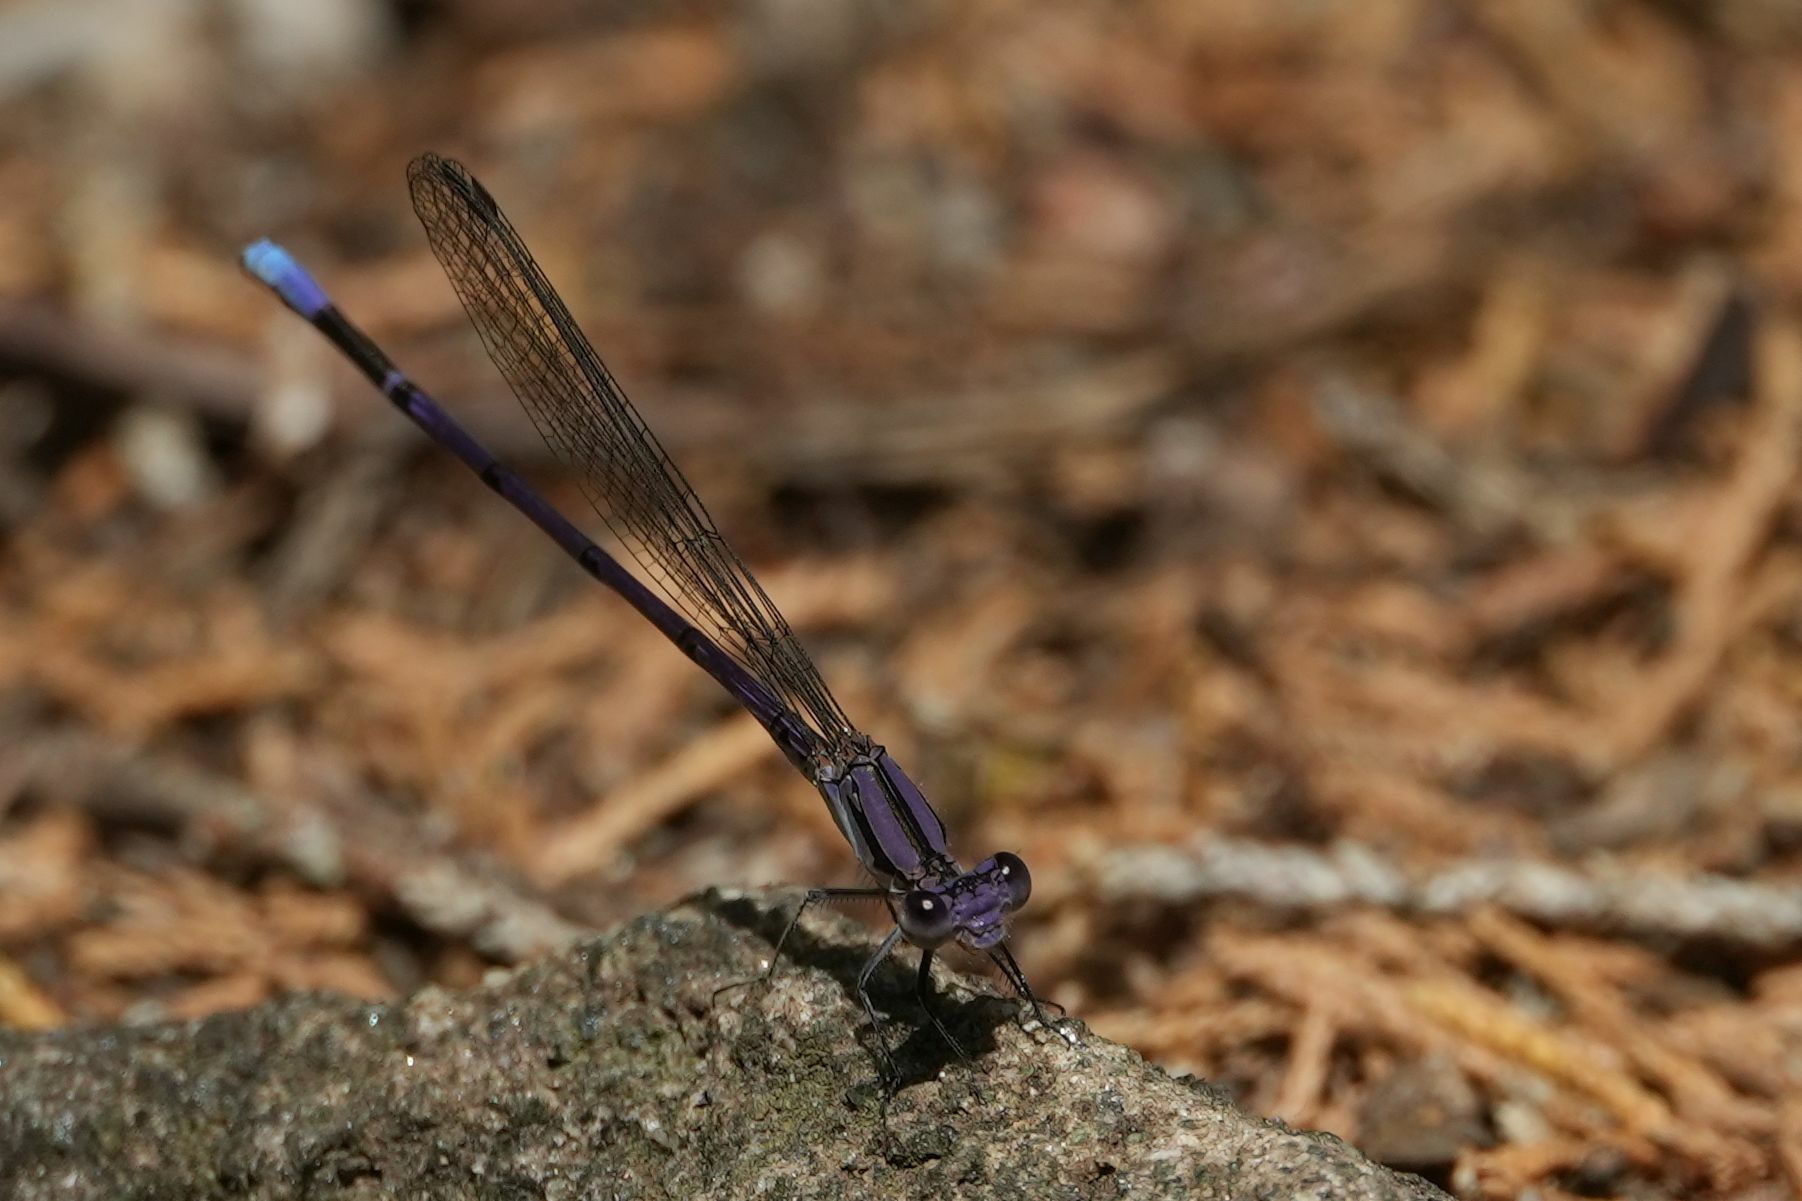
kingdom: Animalia
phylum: Arthropoda
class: Insecta
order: Odonata
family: Coenagrionidae
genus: Argia
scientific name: Argia fumipennis
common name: Variable dancer
